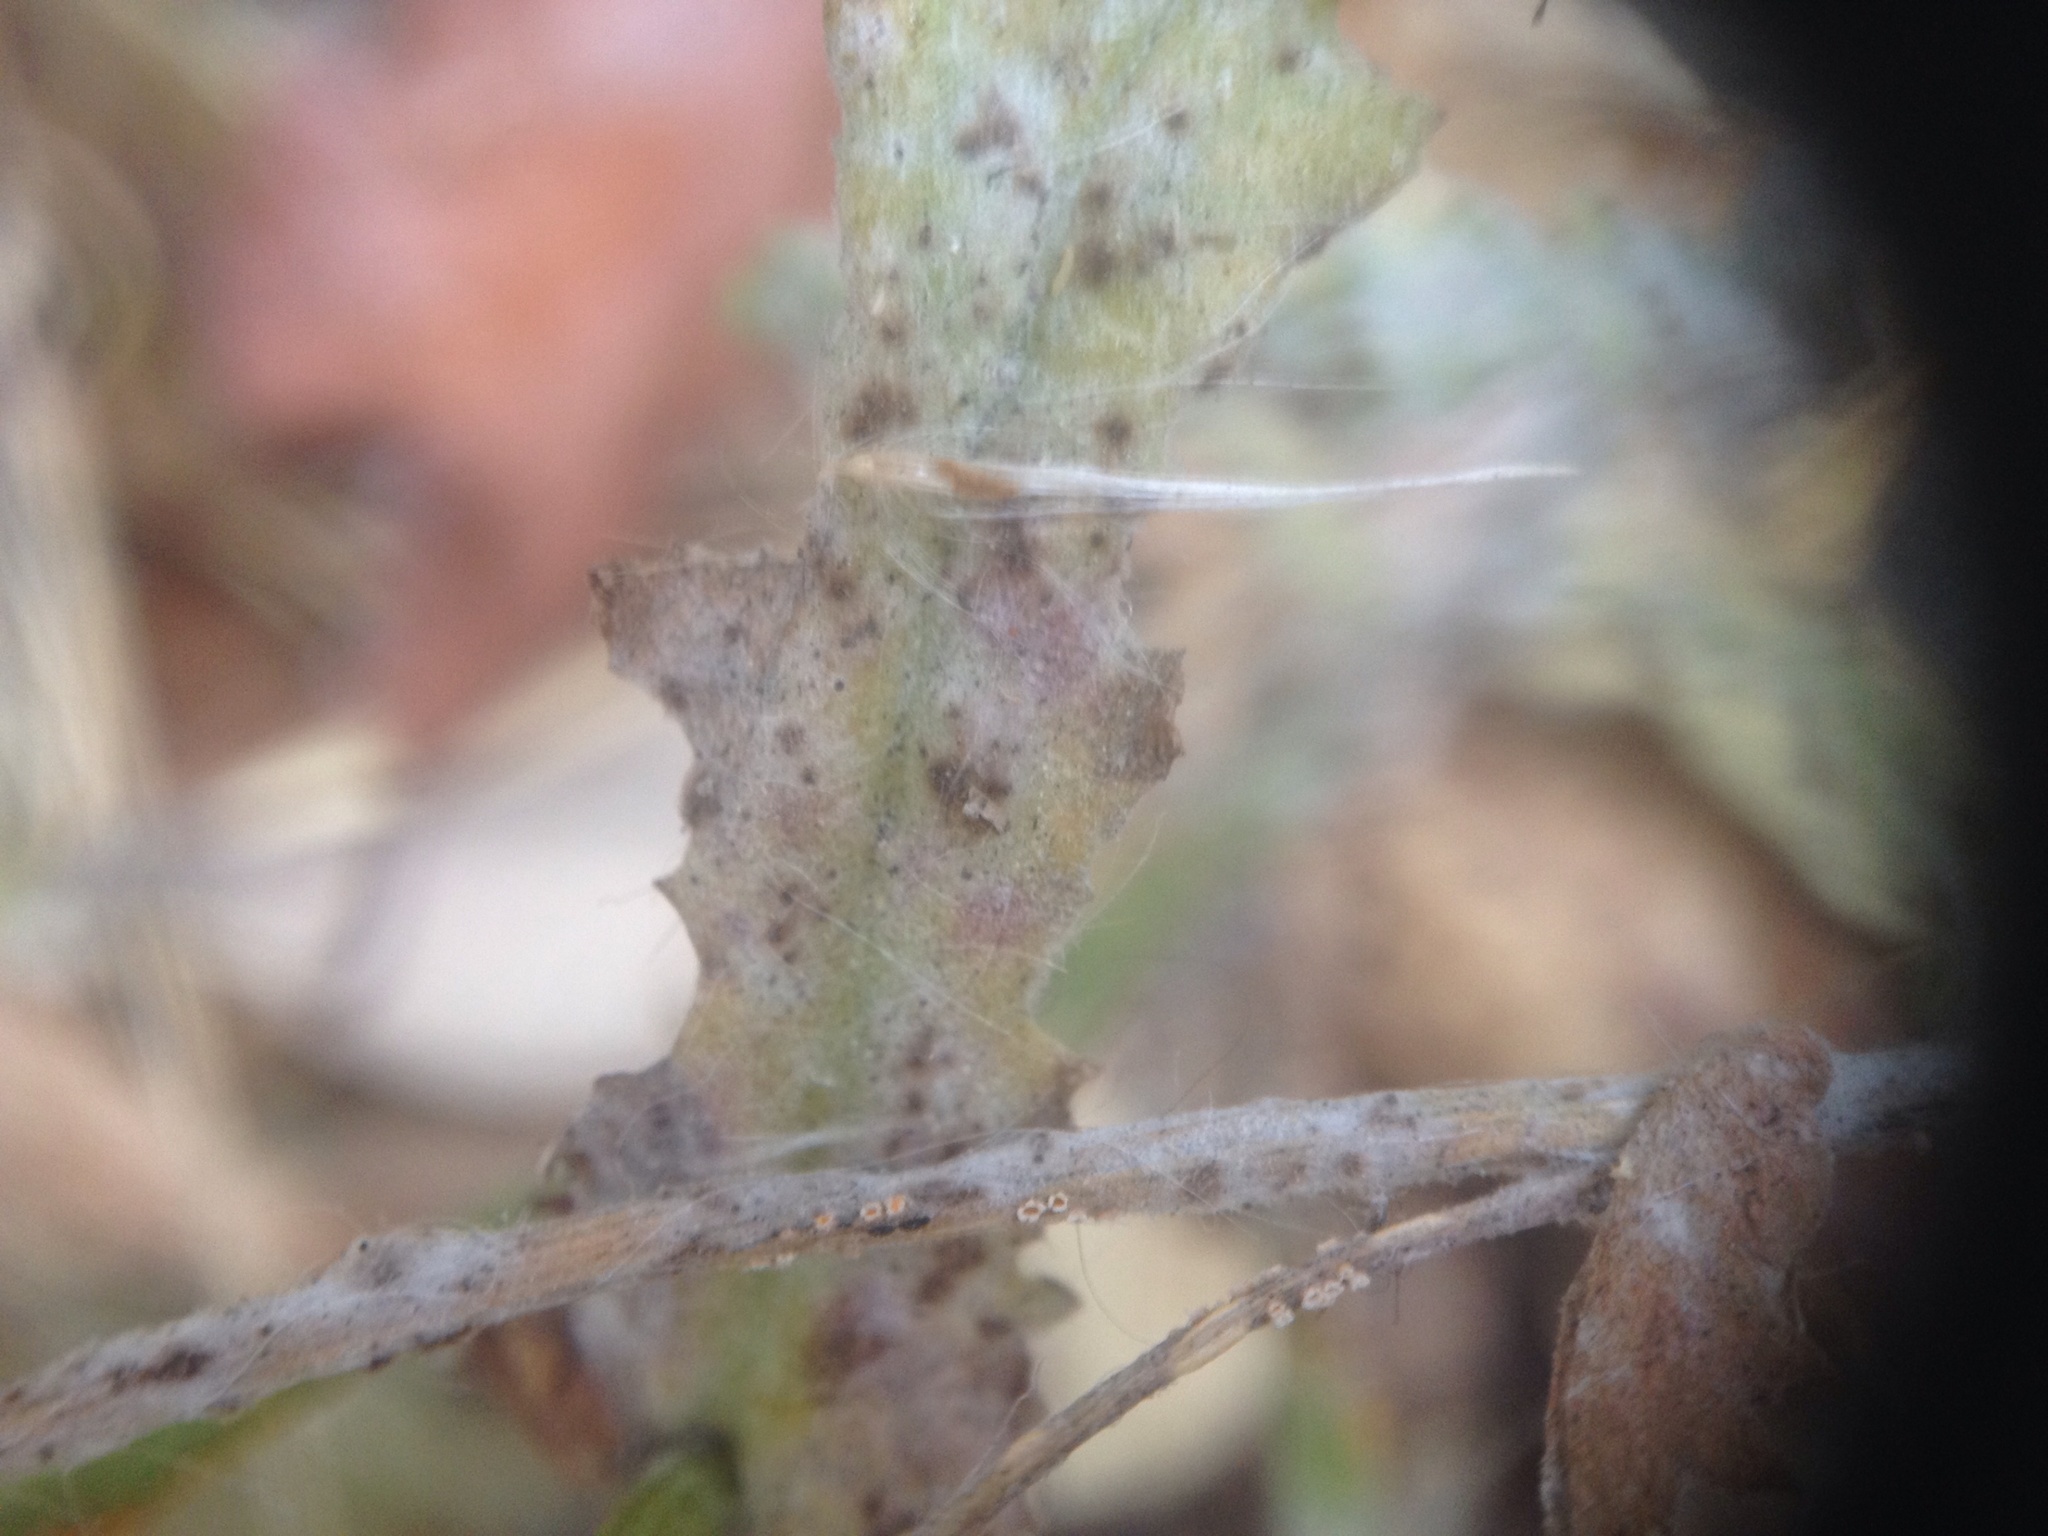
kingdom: Fungi
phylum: Ascomycota
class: Leotiomycetes
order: Helotiales
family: Erysiphaceae
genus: Neoerysiphe
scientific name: Neoerysiphe kerribeeensis
